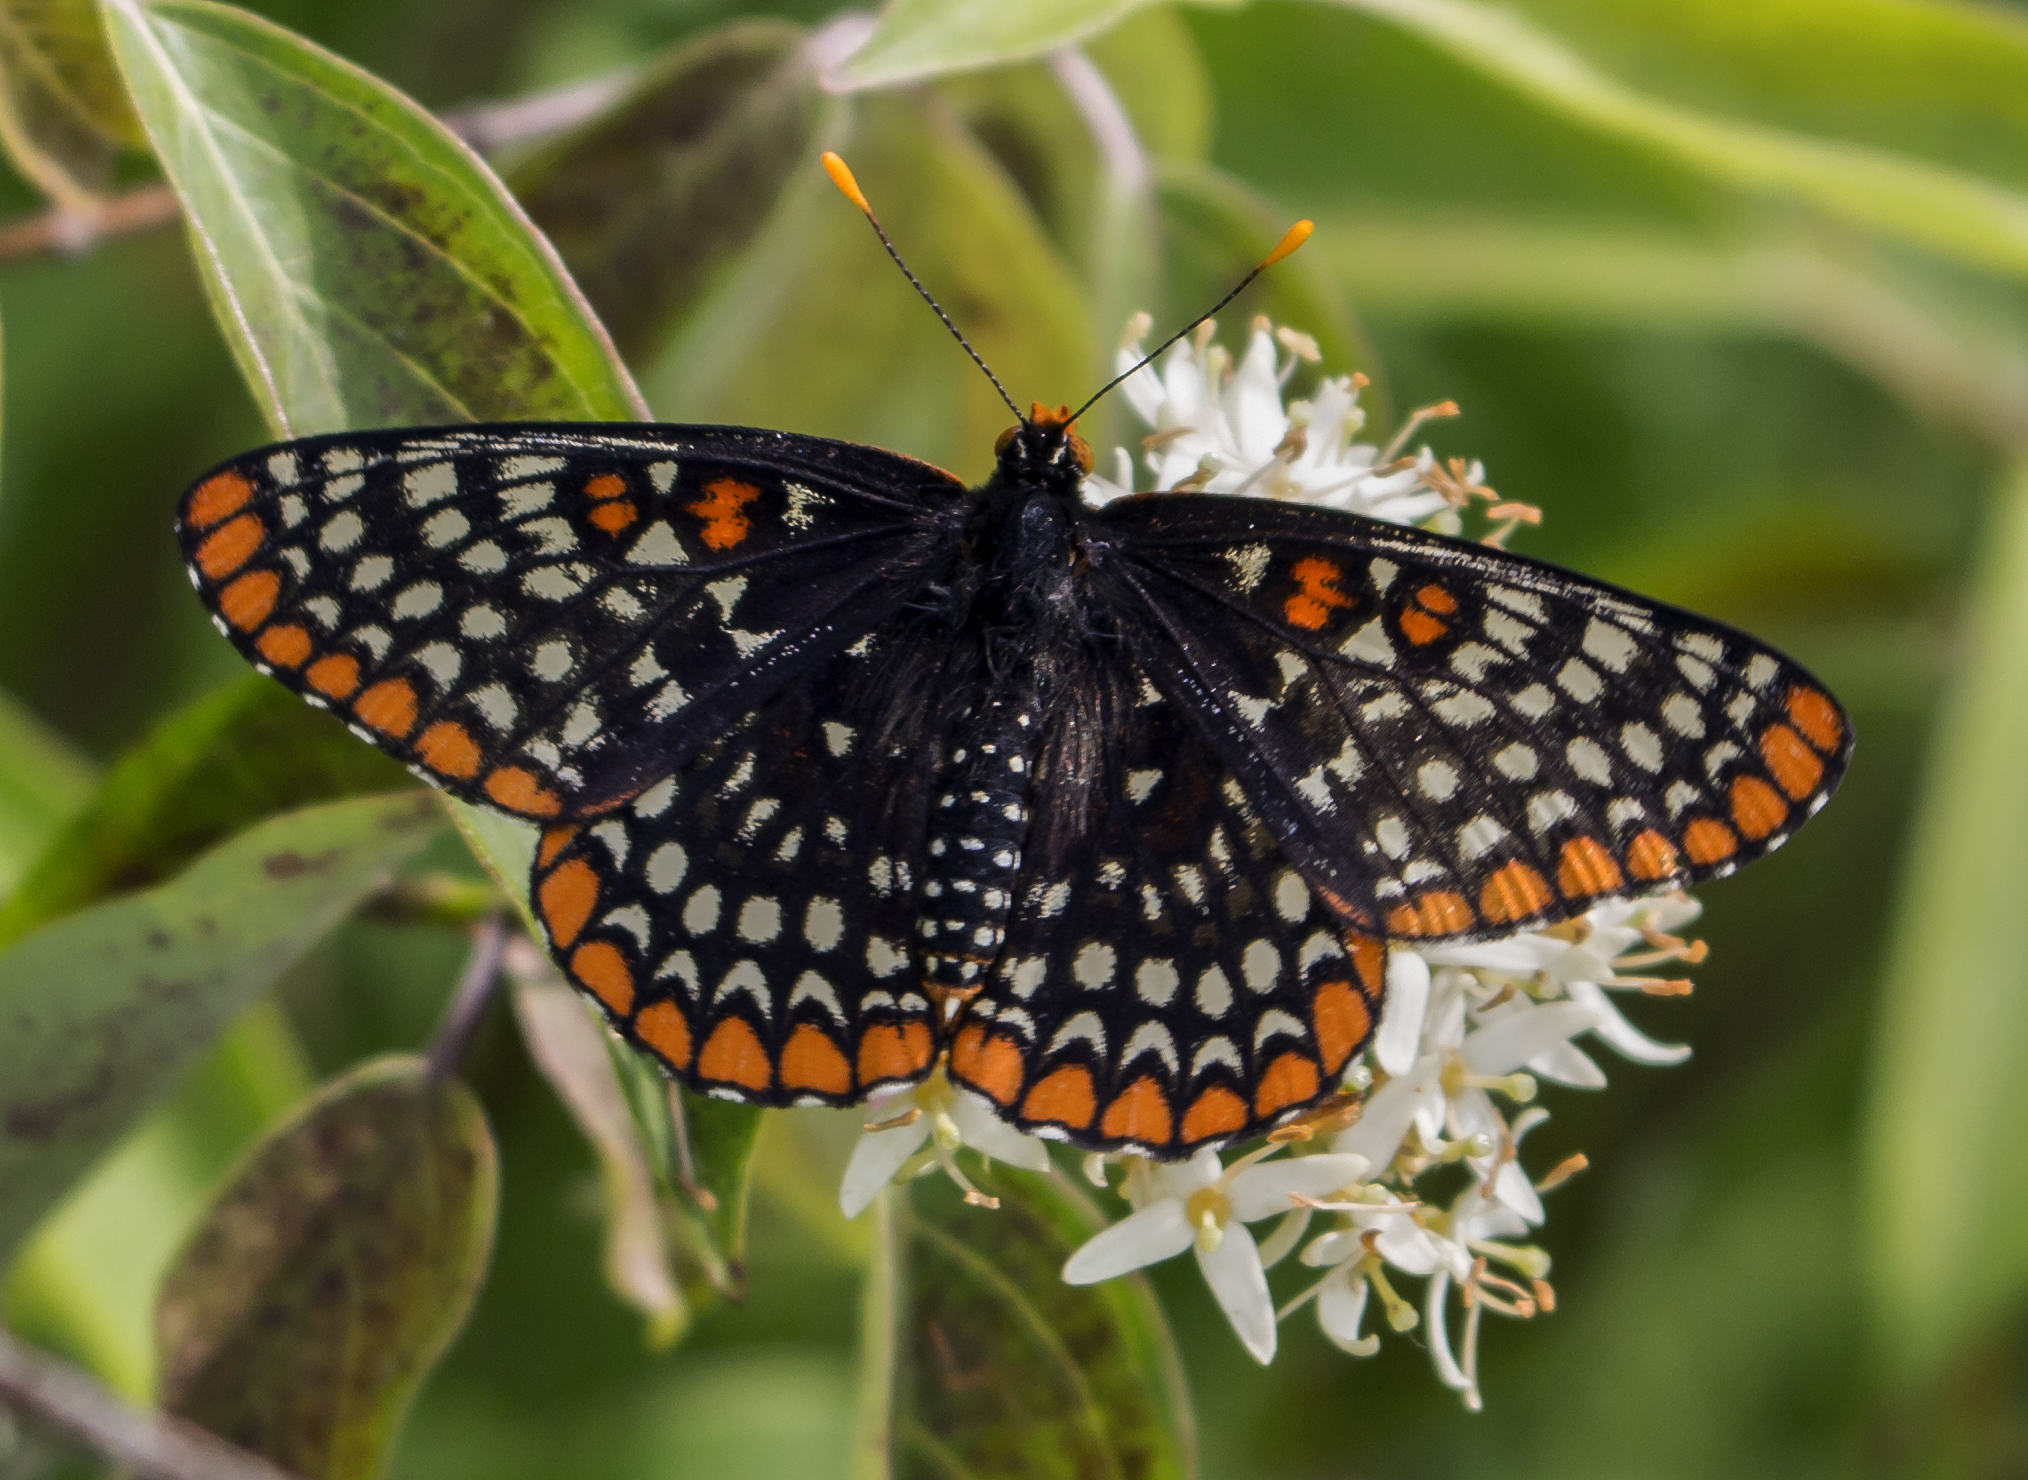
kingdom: Animalia
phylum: Arthropoda
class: Insecta
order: Lepidoptera
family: Nymphalidae
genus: Euphydryas
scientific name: Euphydryas phaeton
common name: Baltimore checkerspot
